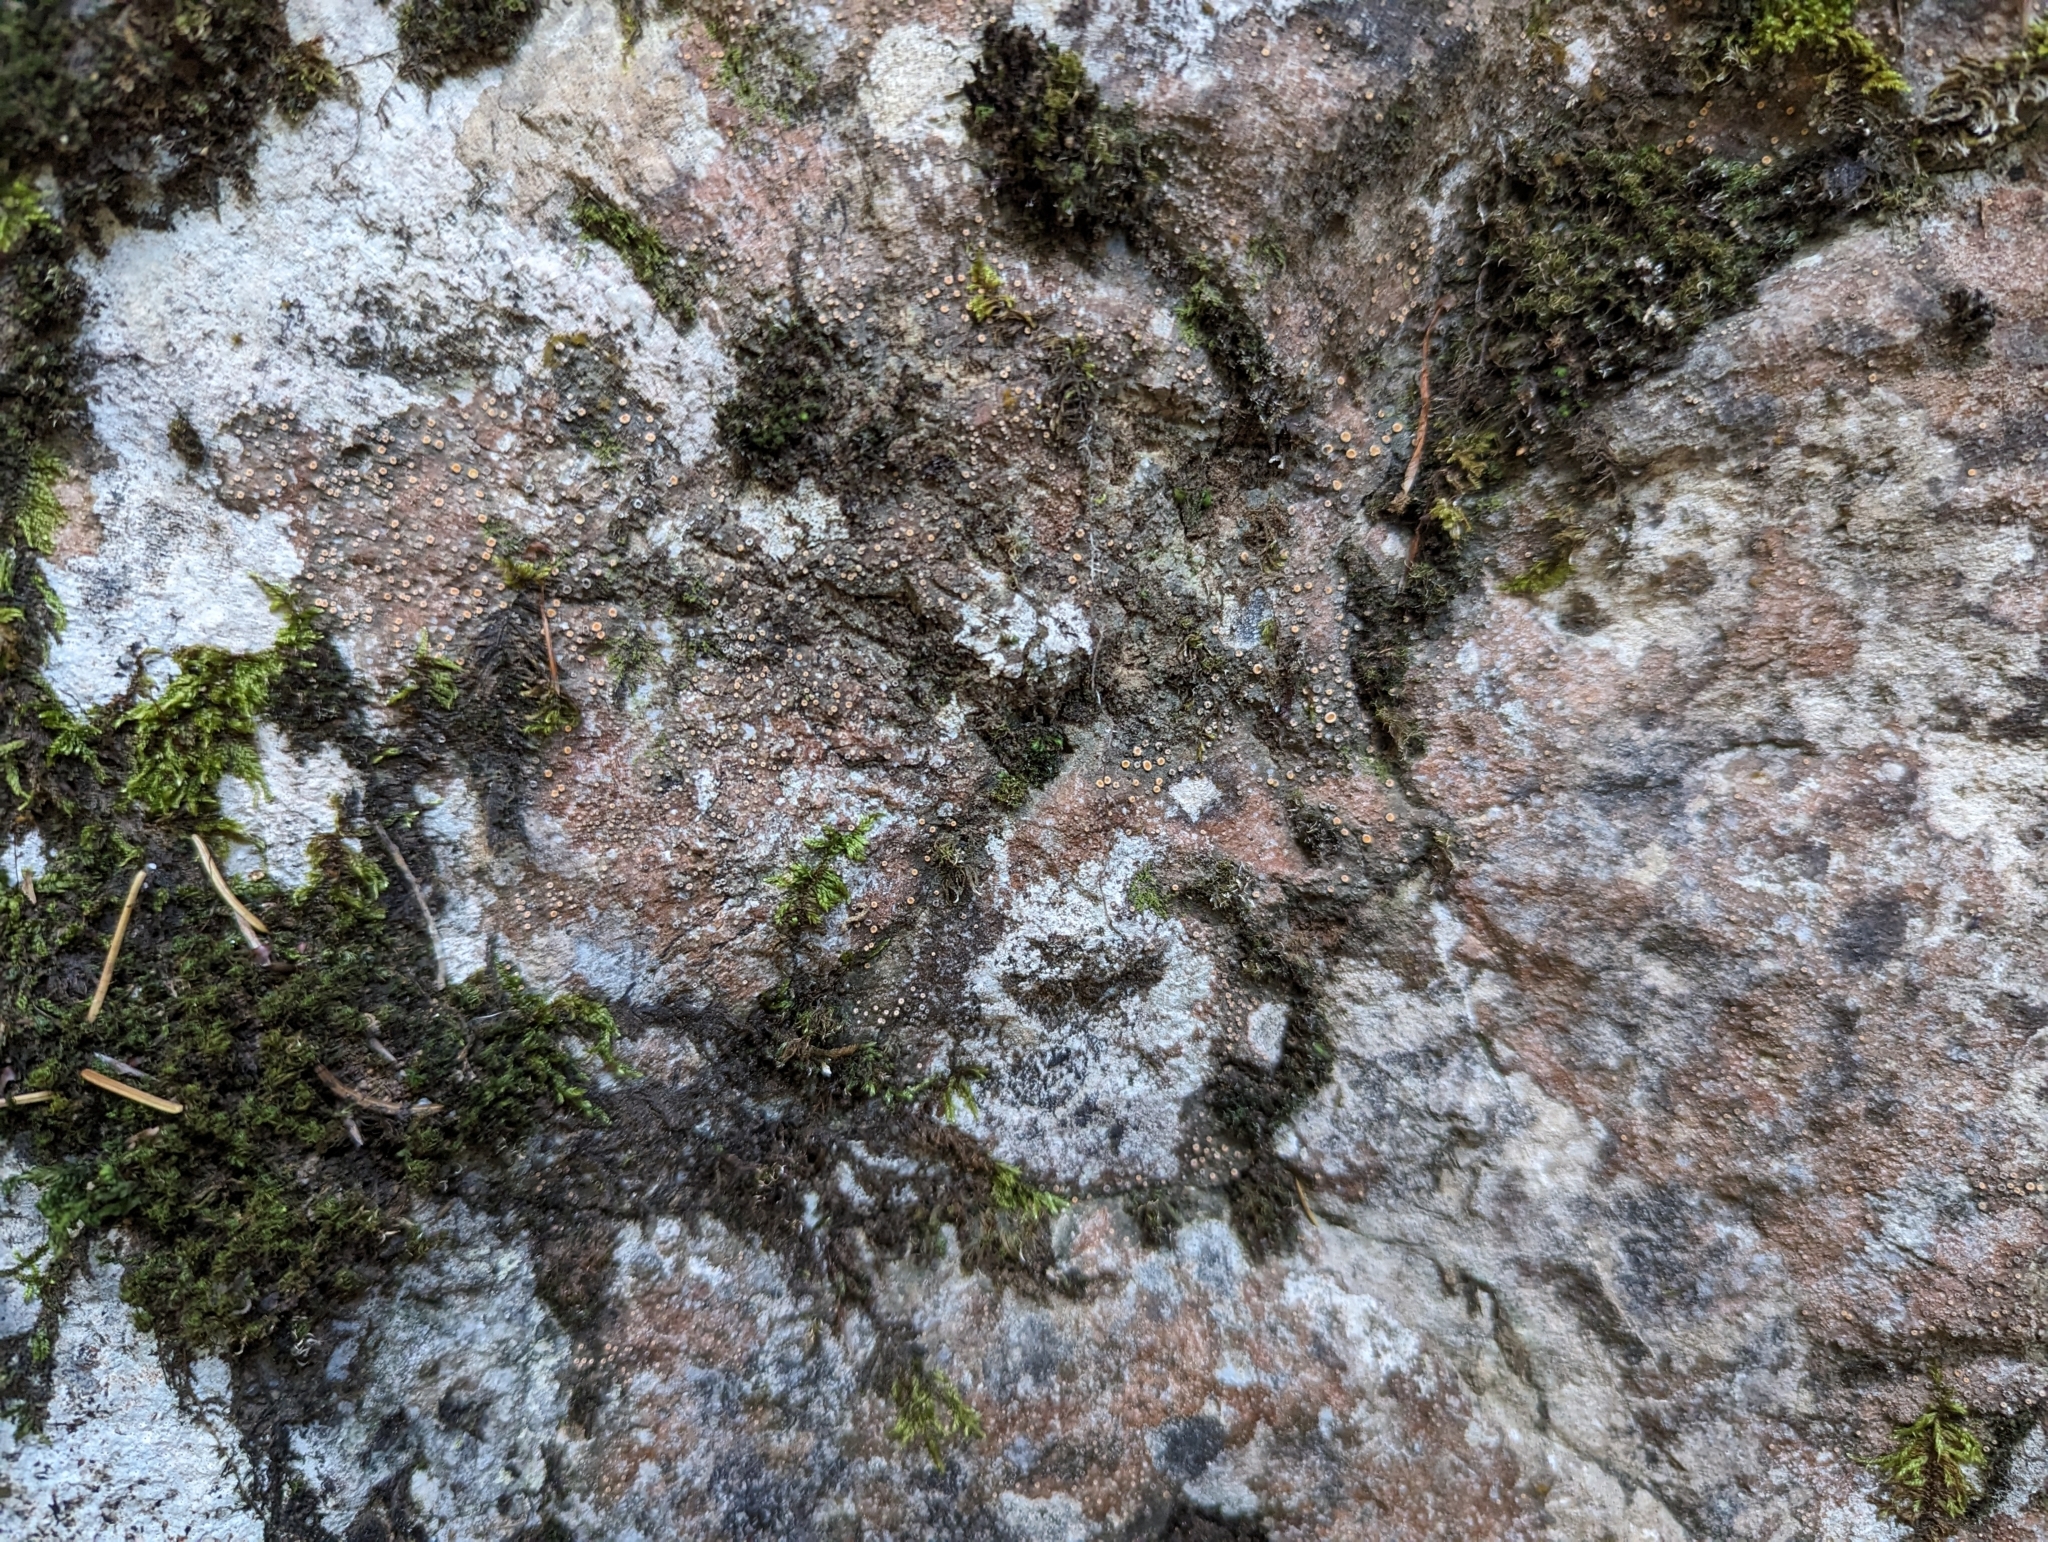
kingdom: Fungi
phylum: Ascomycota
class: Lecanoromycetes
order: Gyalectales
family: Gyalectaceae
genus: Gyalecta
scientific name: Gyalecta jenensis
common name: Rock dimple lichen
